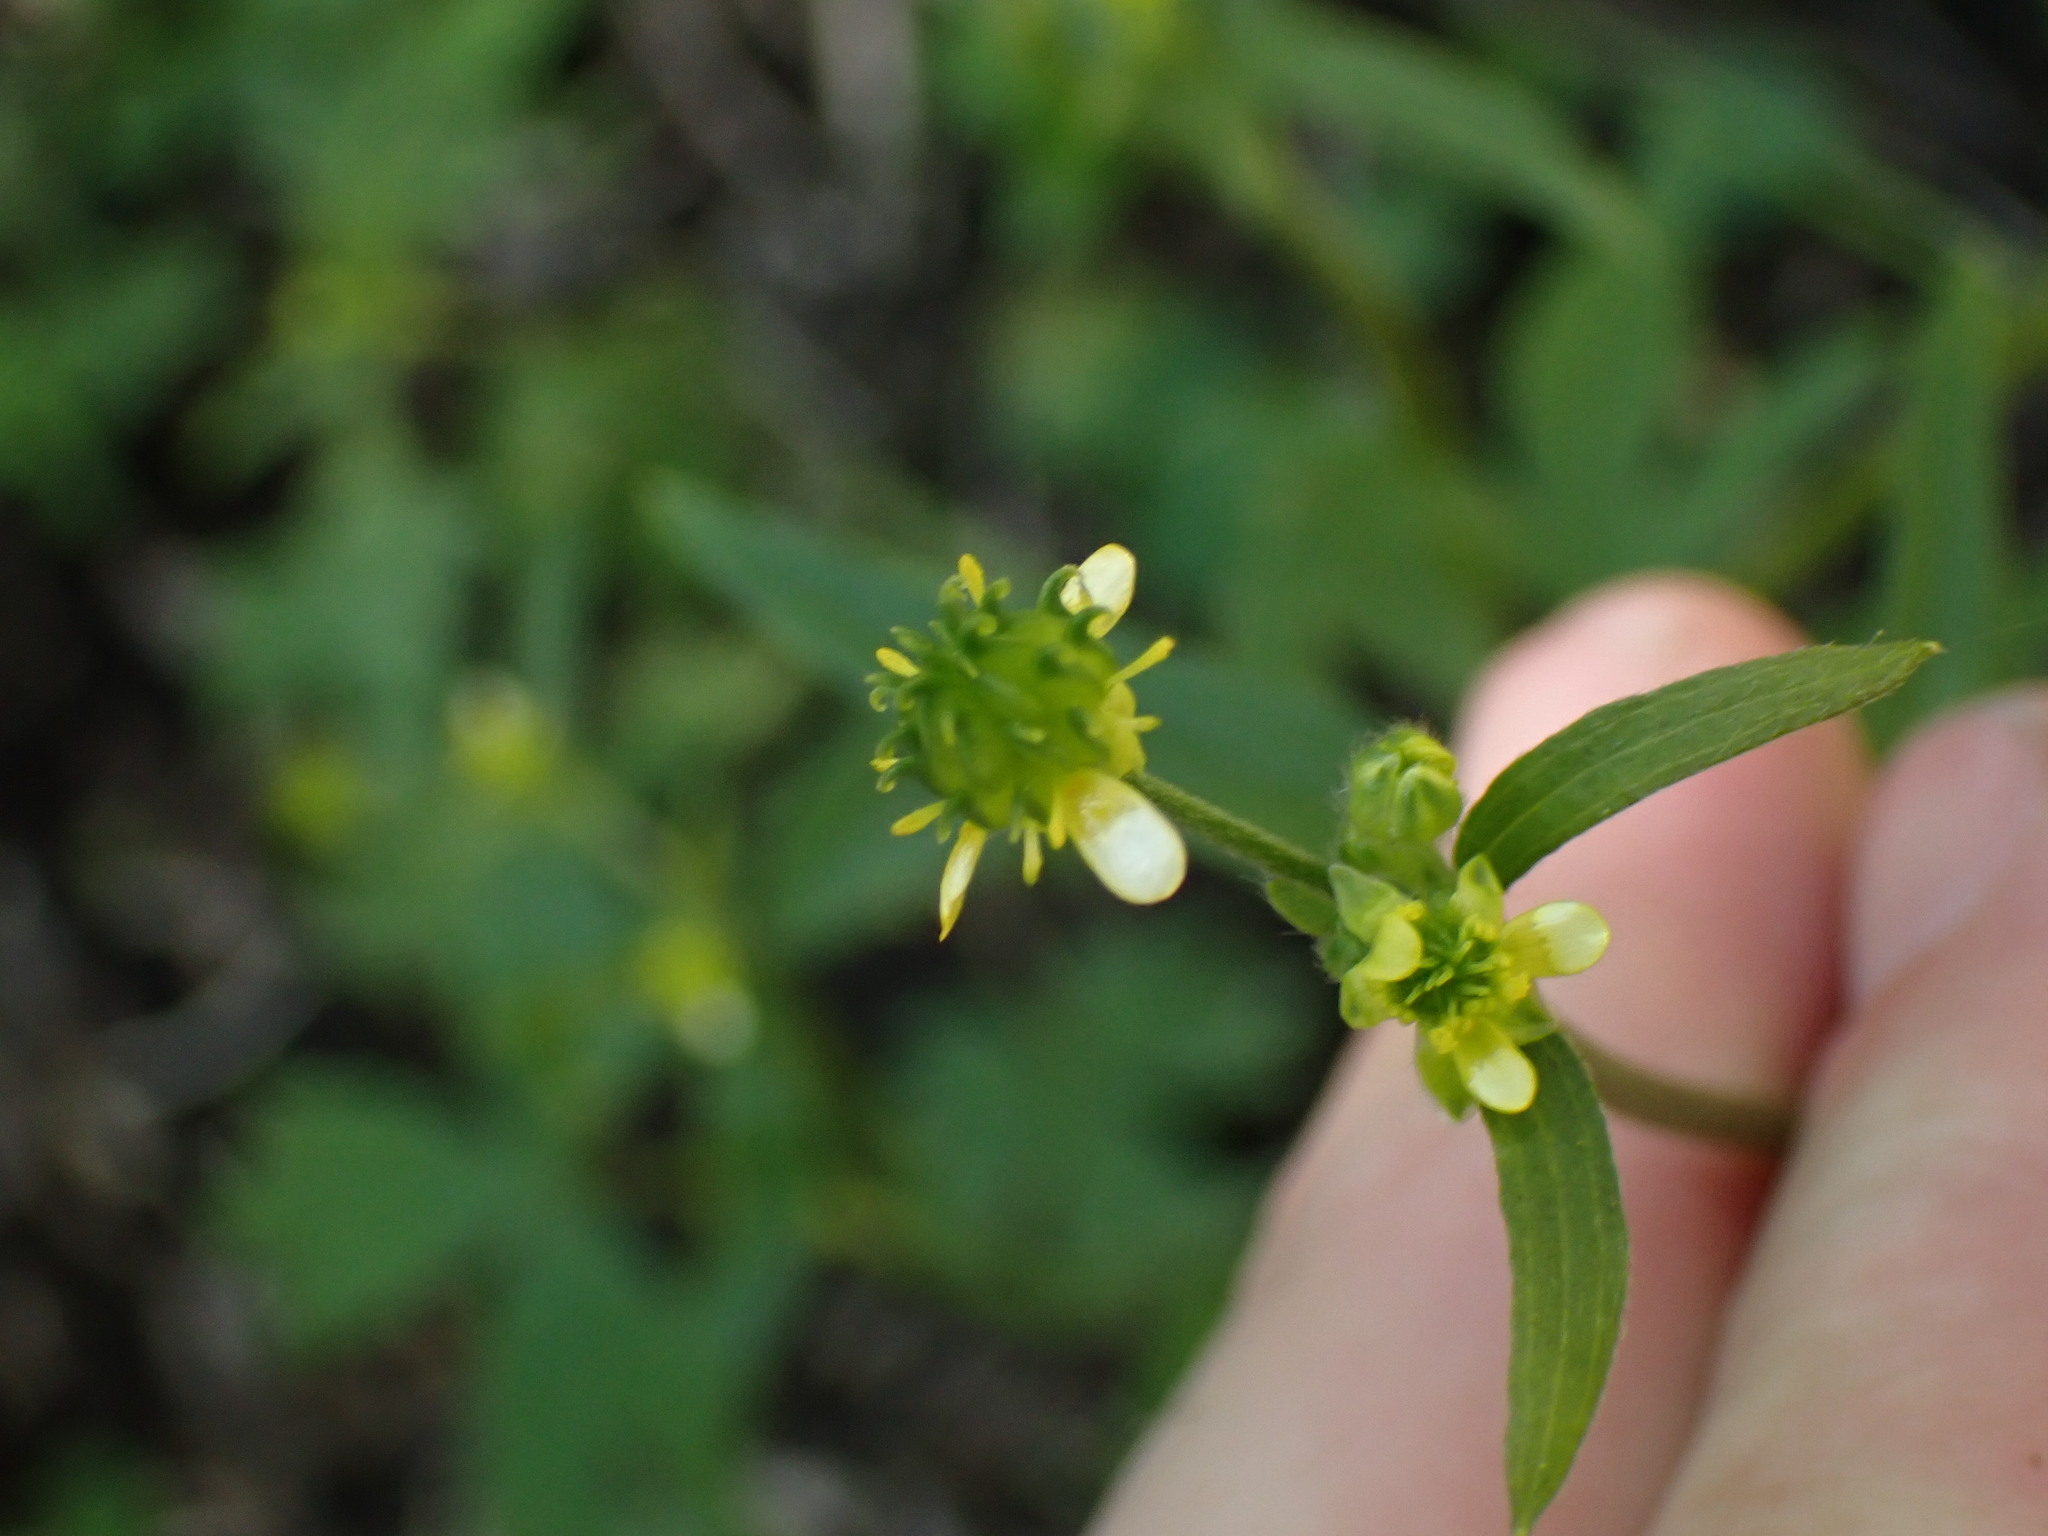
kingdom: Plantae
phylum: Tracheophyta
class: Magnoliopsida
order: Ranunculales
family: Ranunculaceae
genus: Ranunculus
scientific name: Ranunculus uncinatus
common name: Little buttercup
